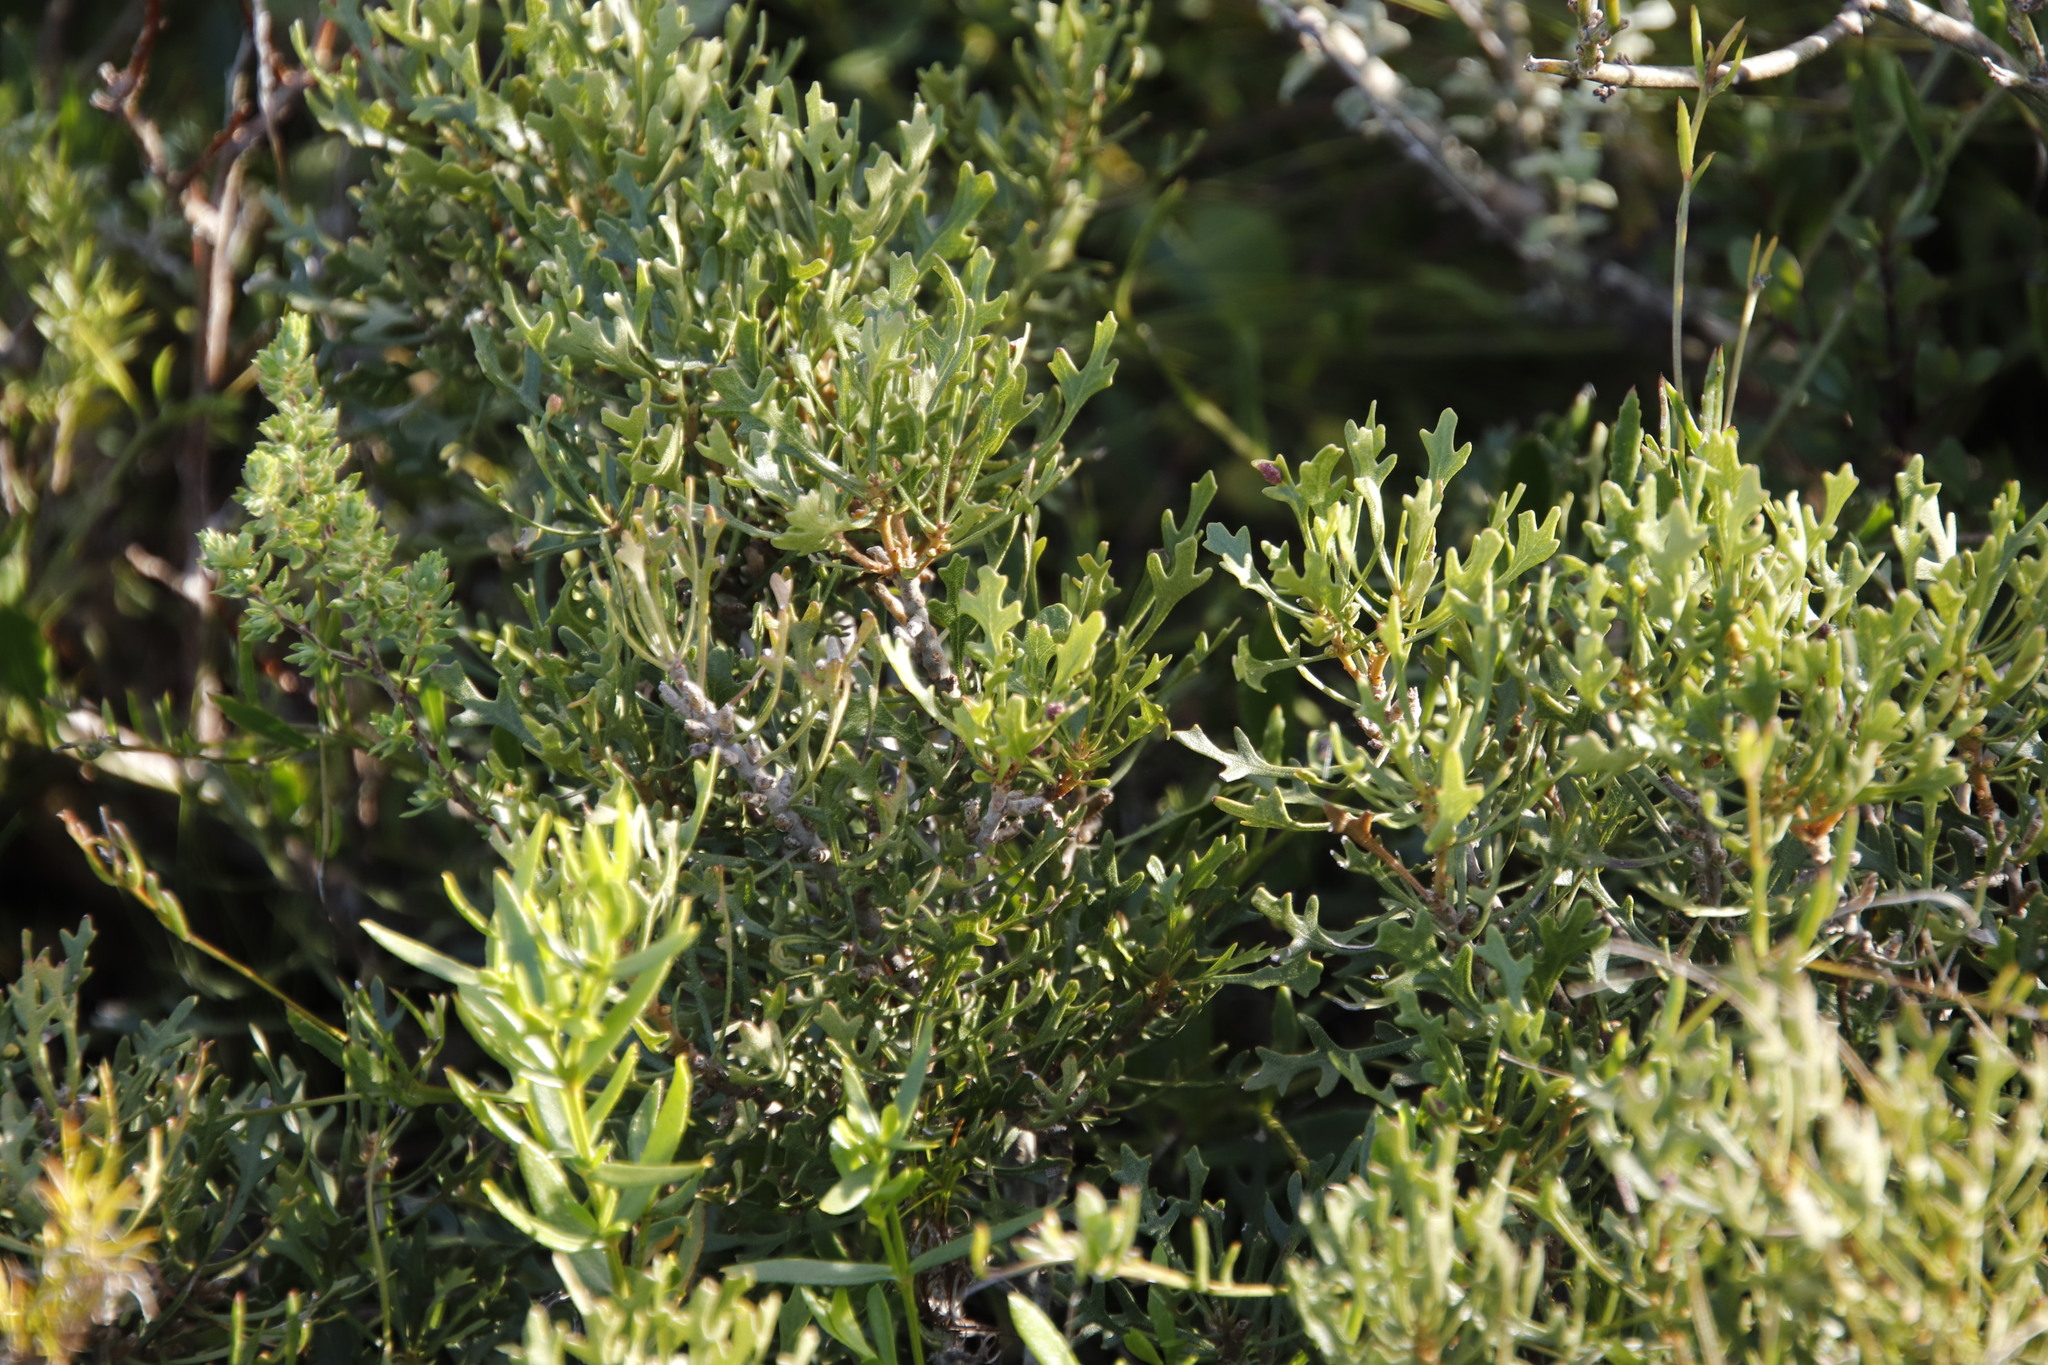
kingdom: Plantae
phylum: Tracheophyta
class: Magnoliopsida
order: Fagales
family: Myricaceae
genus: Morella
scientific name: Morella quercifolia
